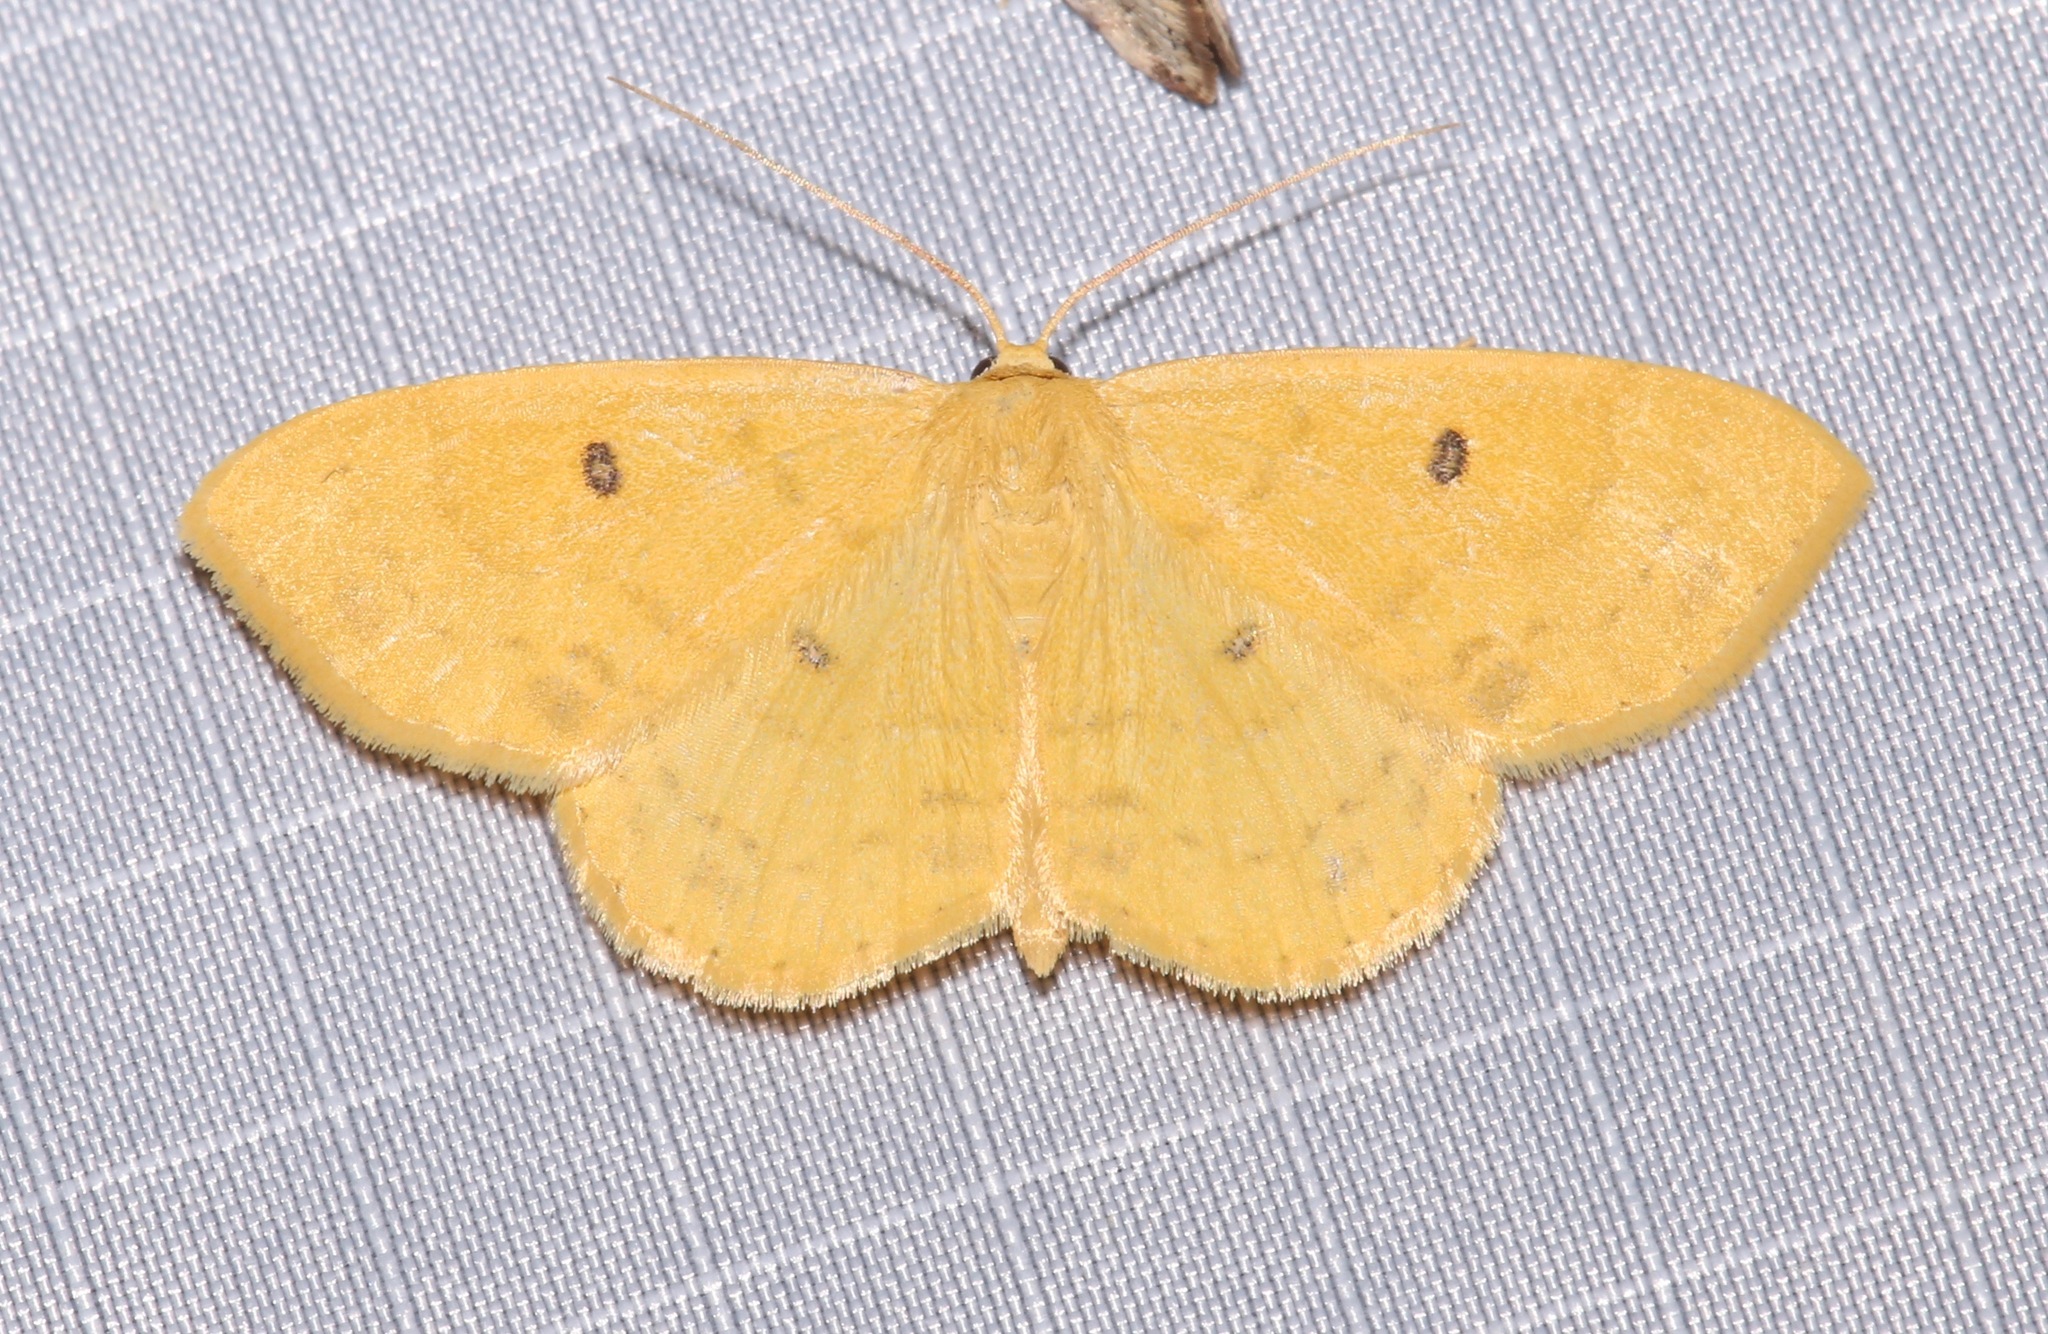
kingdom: Animalia
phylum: Arthropoda
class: Insecta
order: Lepidoptera
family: Geometridae
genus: Semaeopus
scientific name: Semaeopus ella
